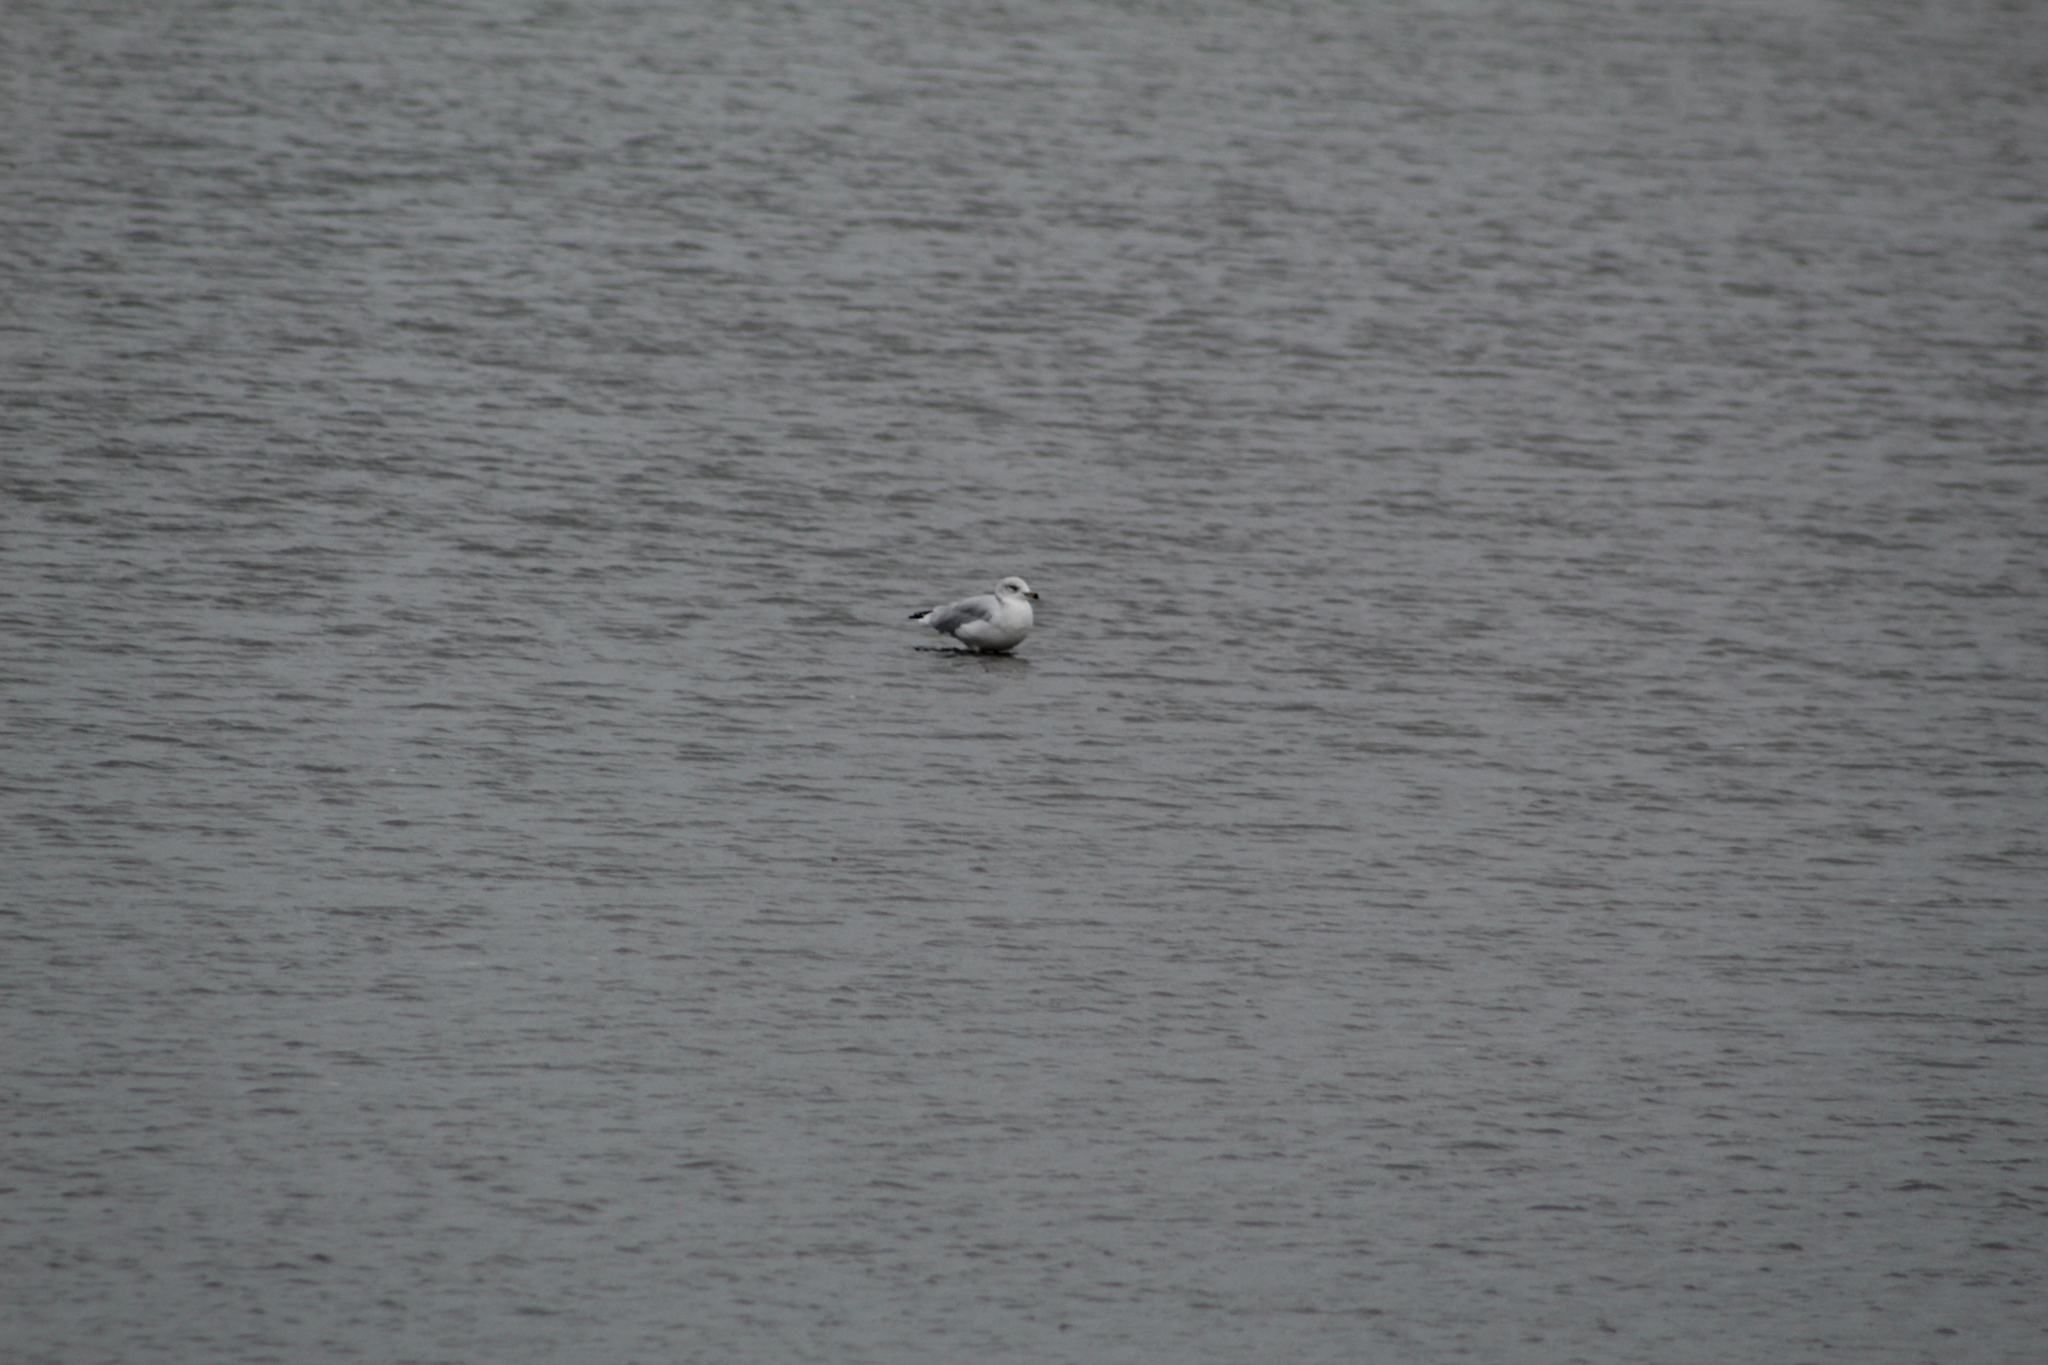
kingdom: Animalia
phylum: Chordata
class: Aves
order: Charadriiformes
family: Laridae
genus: Larus
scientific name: Larus delawarensis
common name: Ring-billed gull
